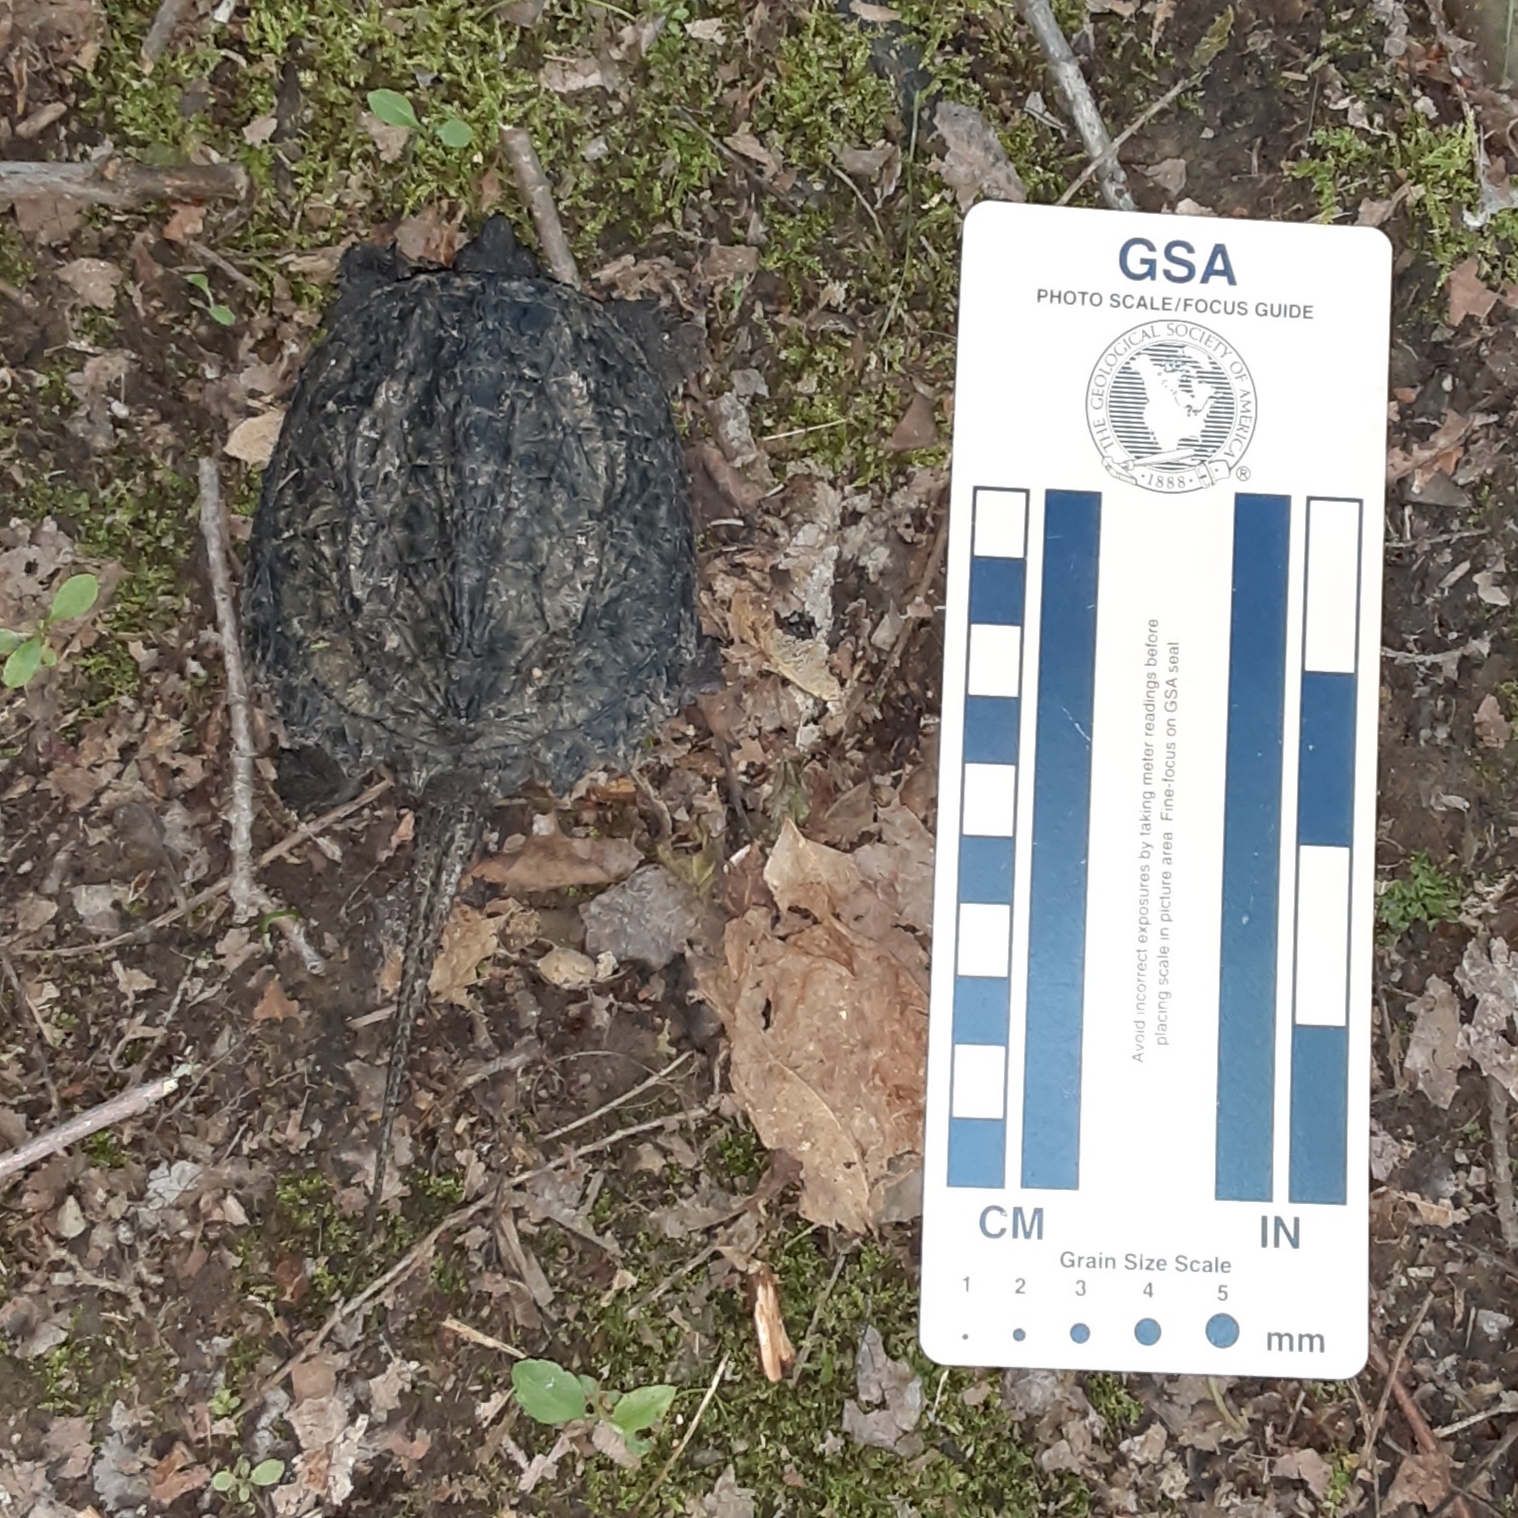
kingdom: Animalia
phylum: Chordata
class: Testudines
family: Chelydridae
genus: Chelydra
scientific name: Chelydra serpentina
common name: Common snapping turtle
